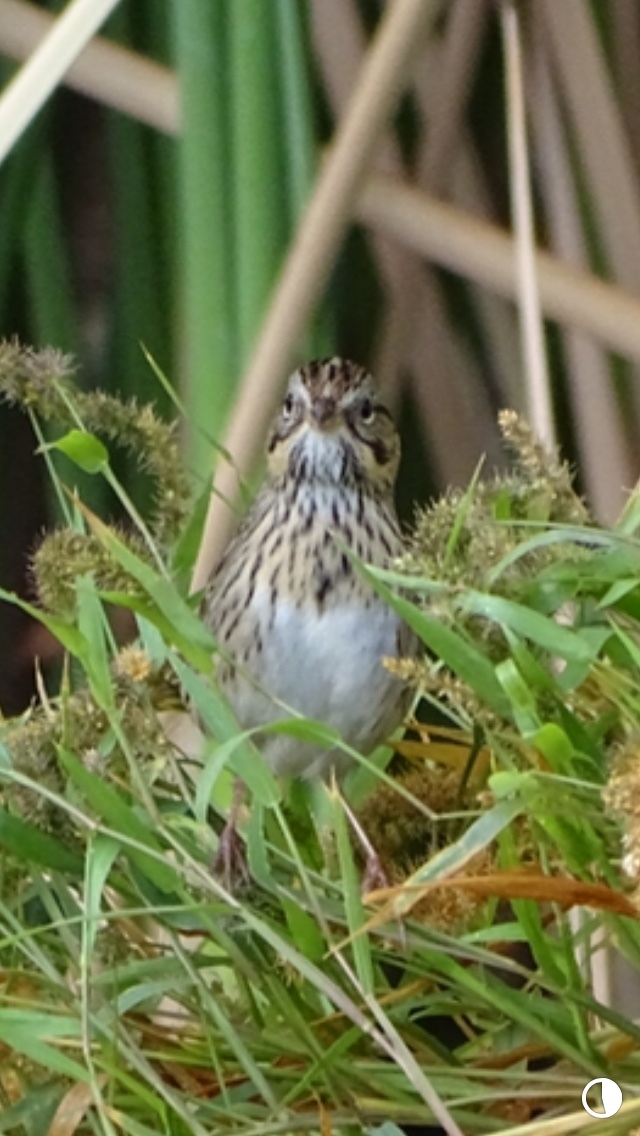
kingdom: Animalia
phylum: Chordata
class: Aves
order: Passeriformes
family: Passerellidae
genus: Melospiza
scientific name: Melospiza lincolnii
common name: Lincoln's sparrow
